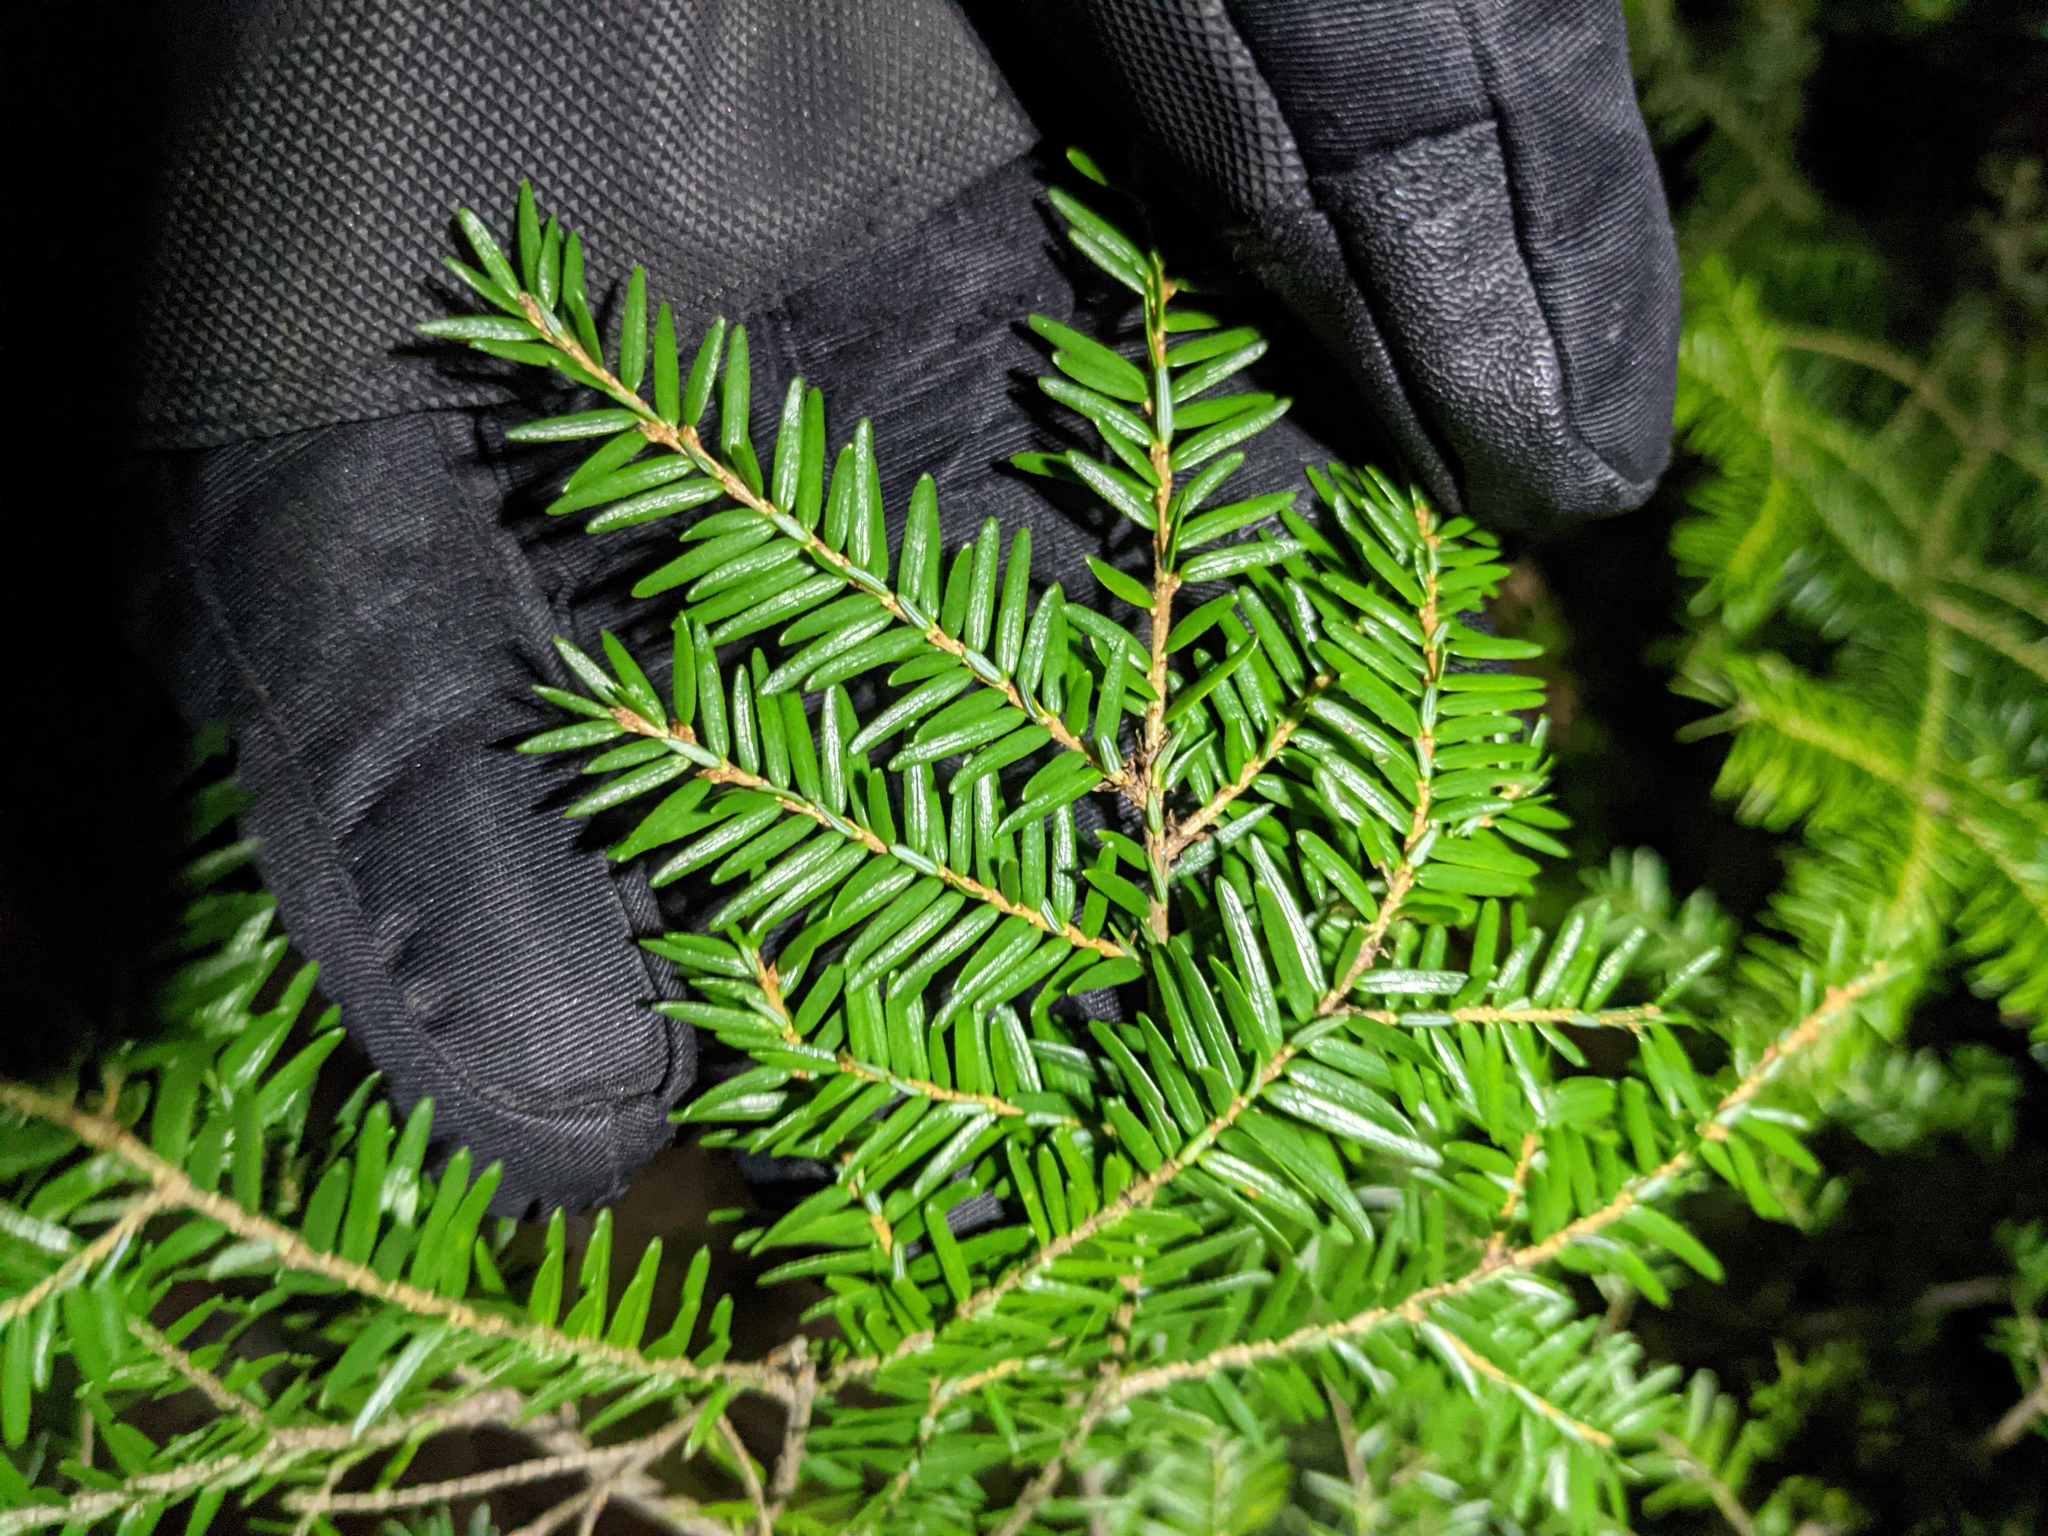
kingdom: Plantae
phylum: Tracheophyta
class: Pinopsida
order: Pinales
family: Pinaceae
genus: Tsuga
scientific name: Tsuga canadensis
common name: Eastern hemlock
